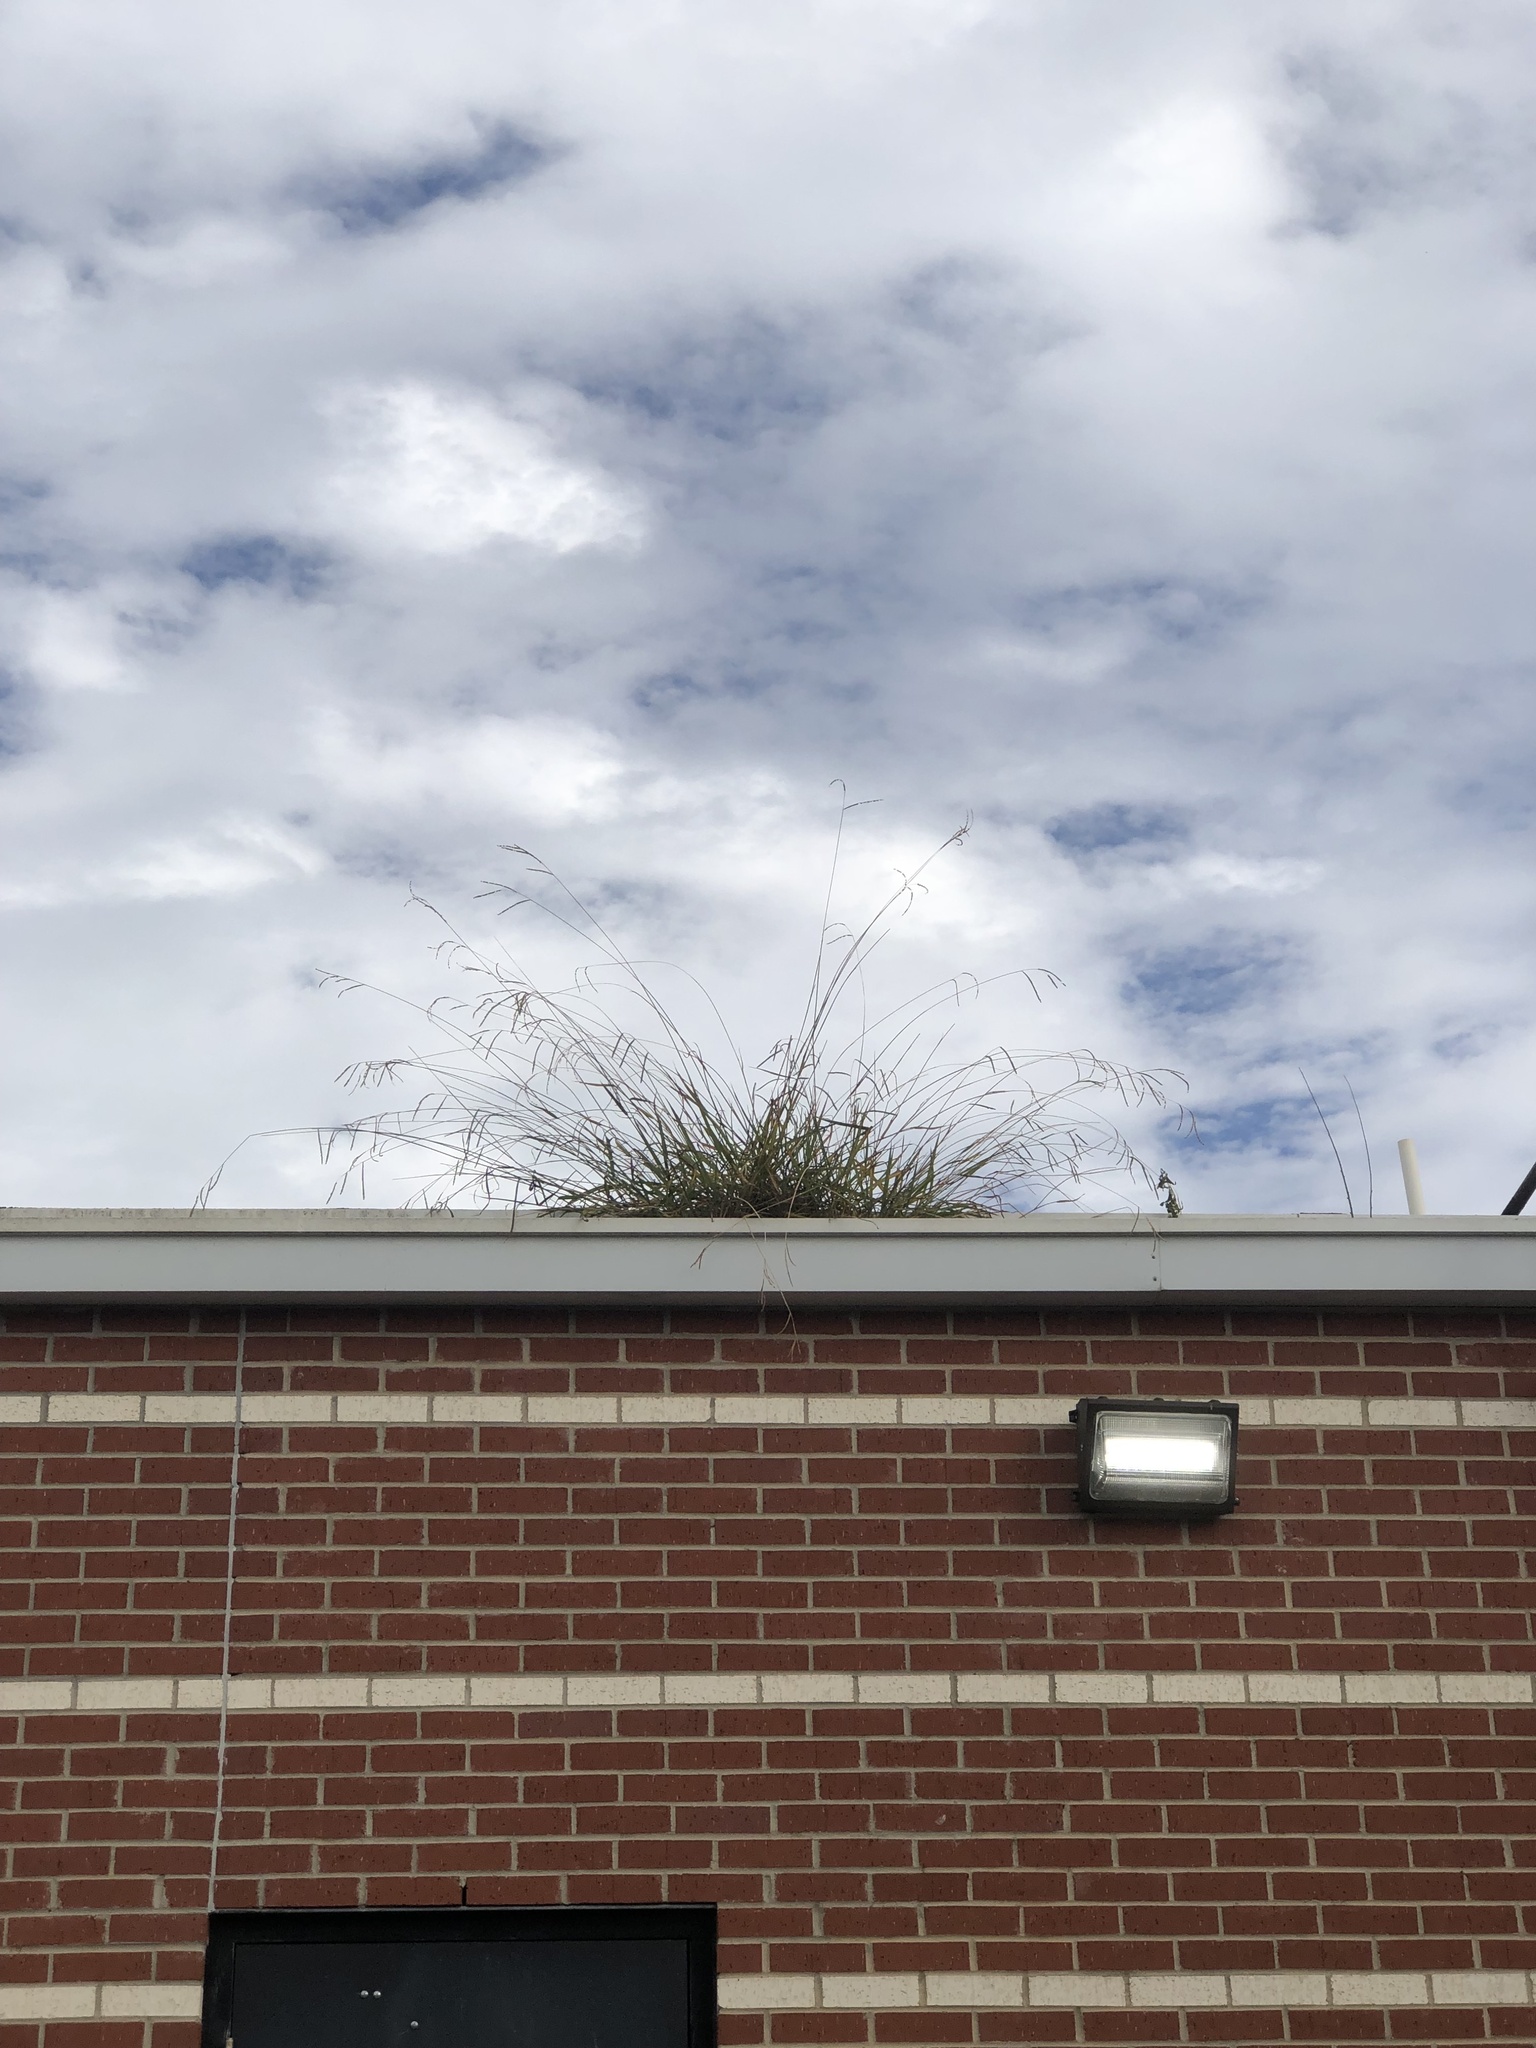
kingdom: Plantae
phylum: Tracheophyta
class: Liliopsida
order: Poales
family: Poaceae
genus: Paspalum
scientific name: Paspalum dilatatum
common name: Dallisgrass
